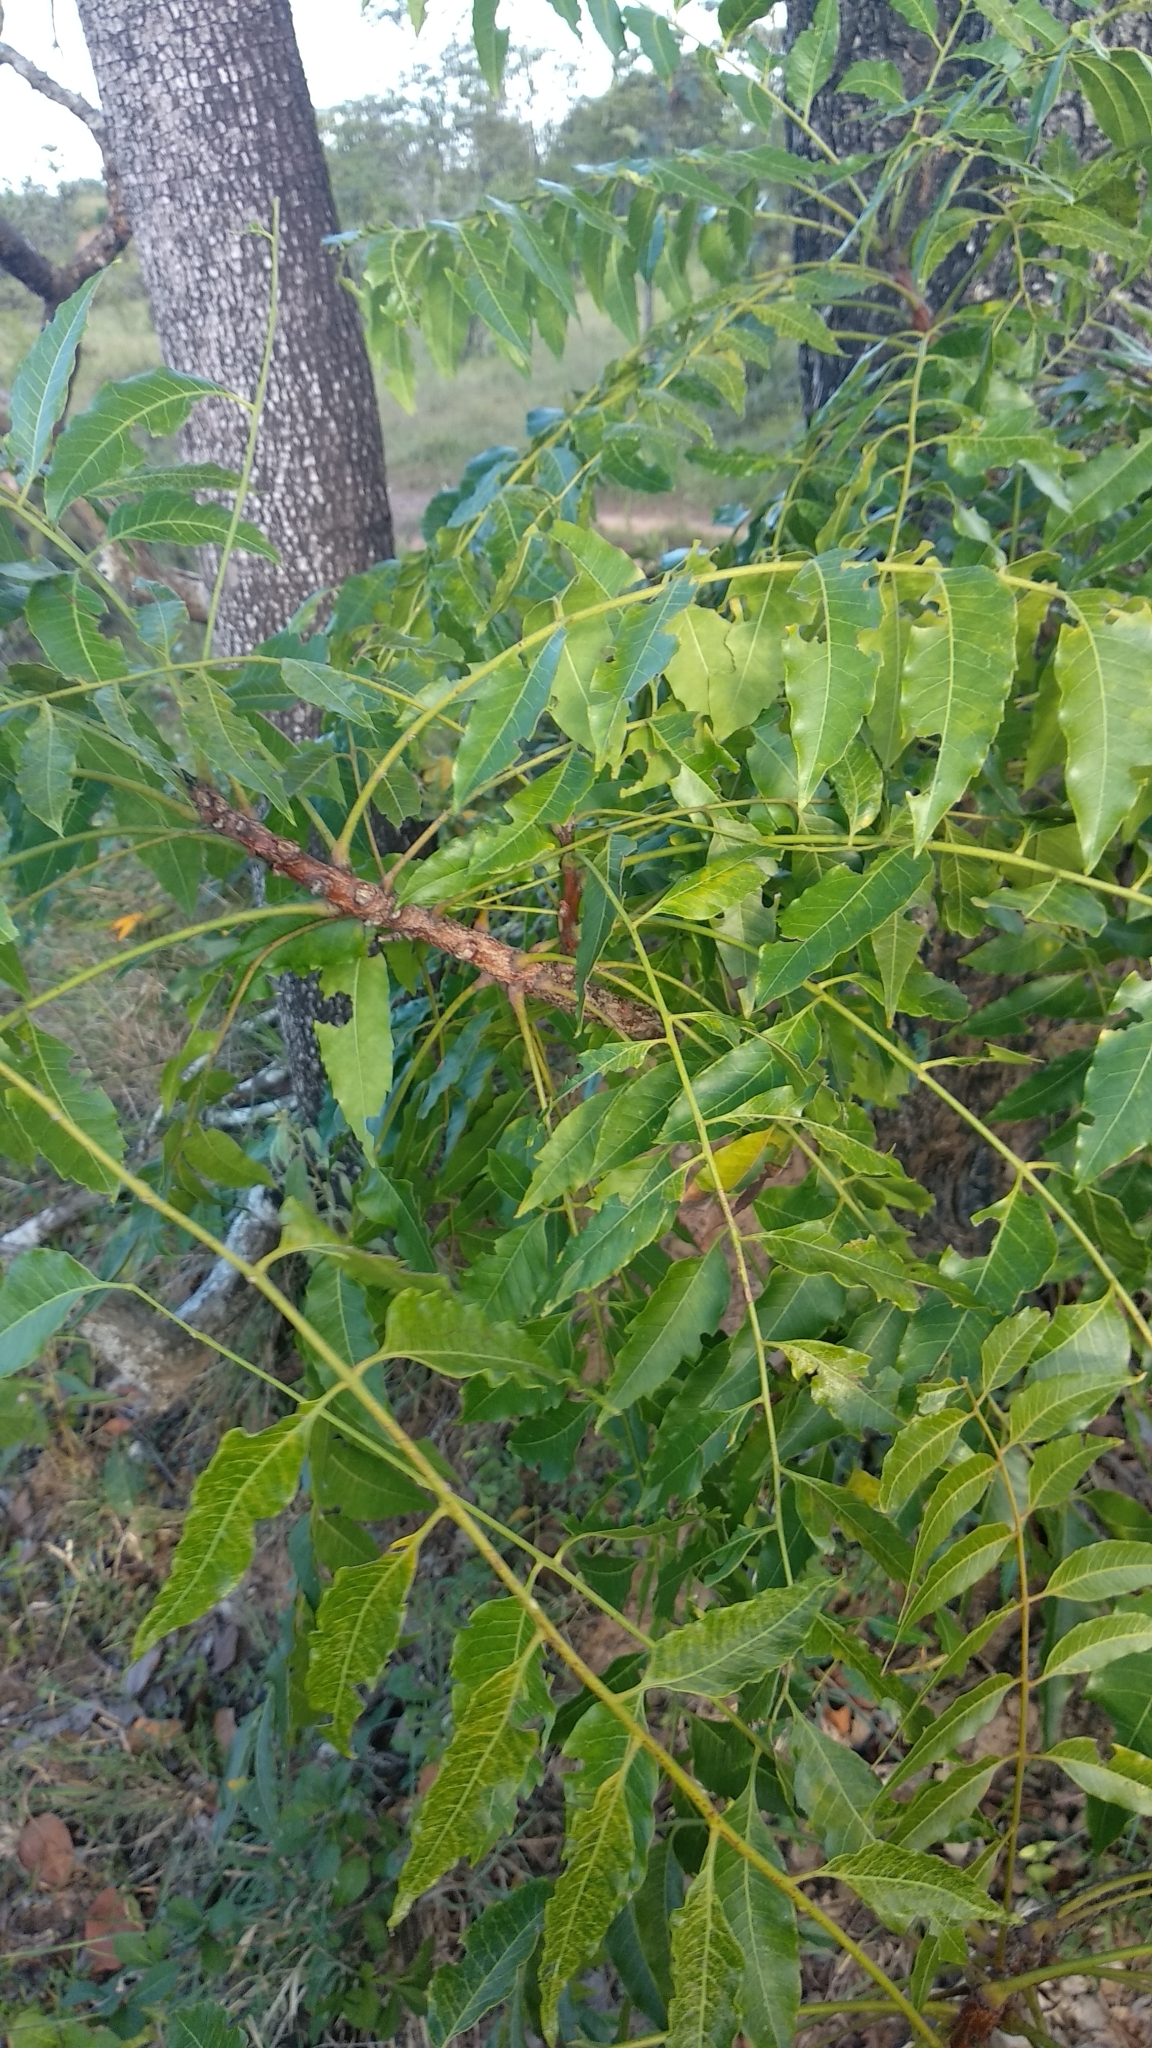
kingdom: Plantae
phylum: Tracheophyta
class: Magnoliopsida
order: Sapindales
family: Meliaceae
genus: Azadirachta
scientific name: Azadirachta indica
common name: Neem
